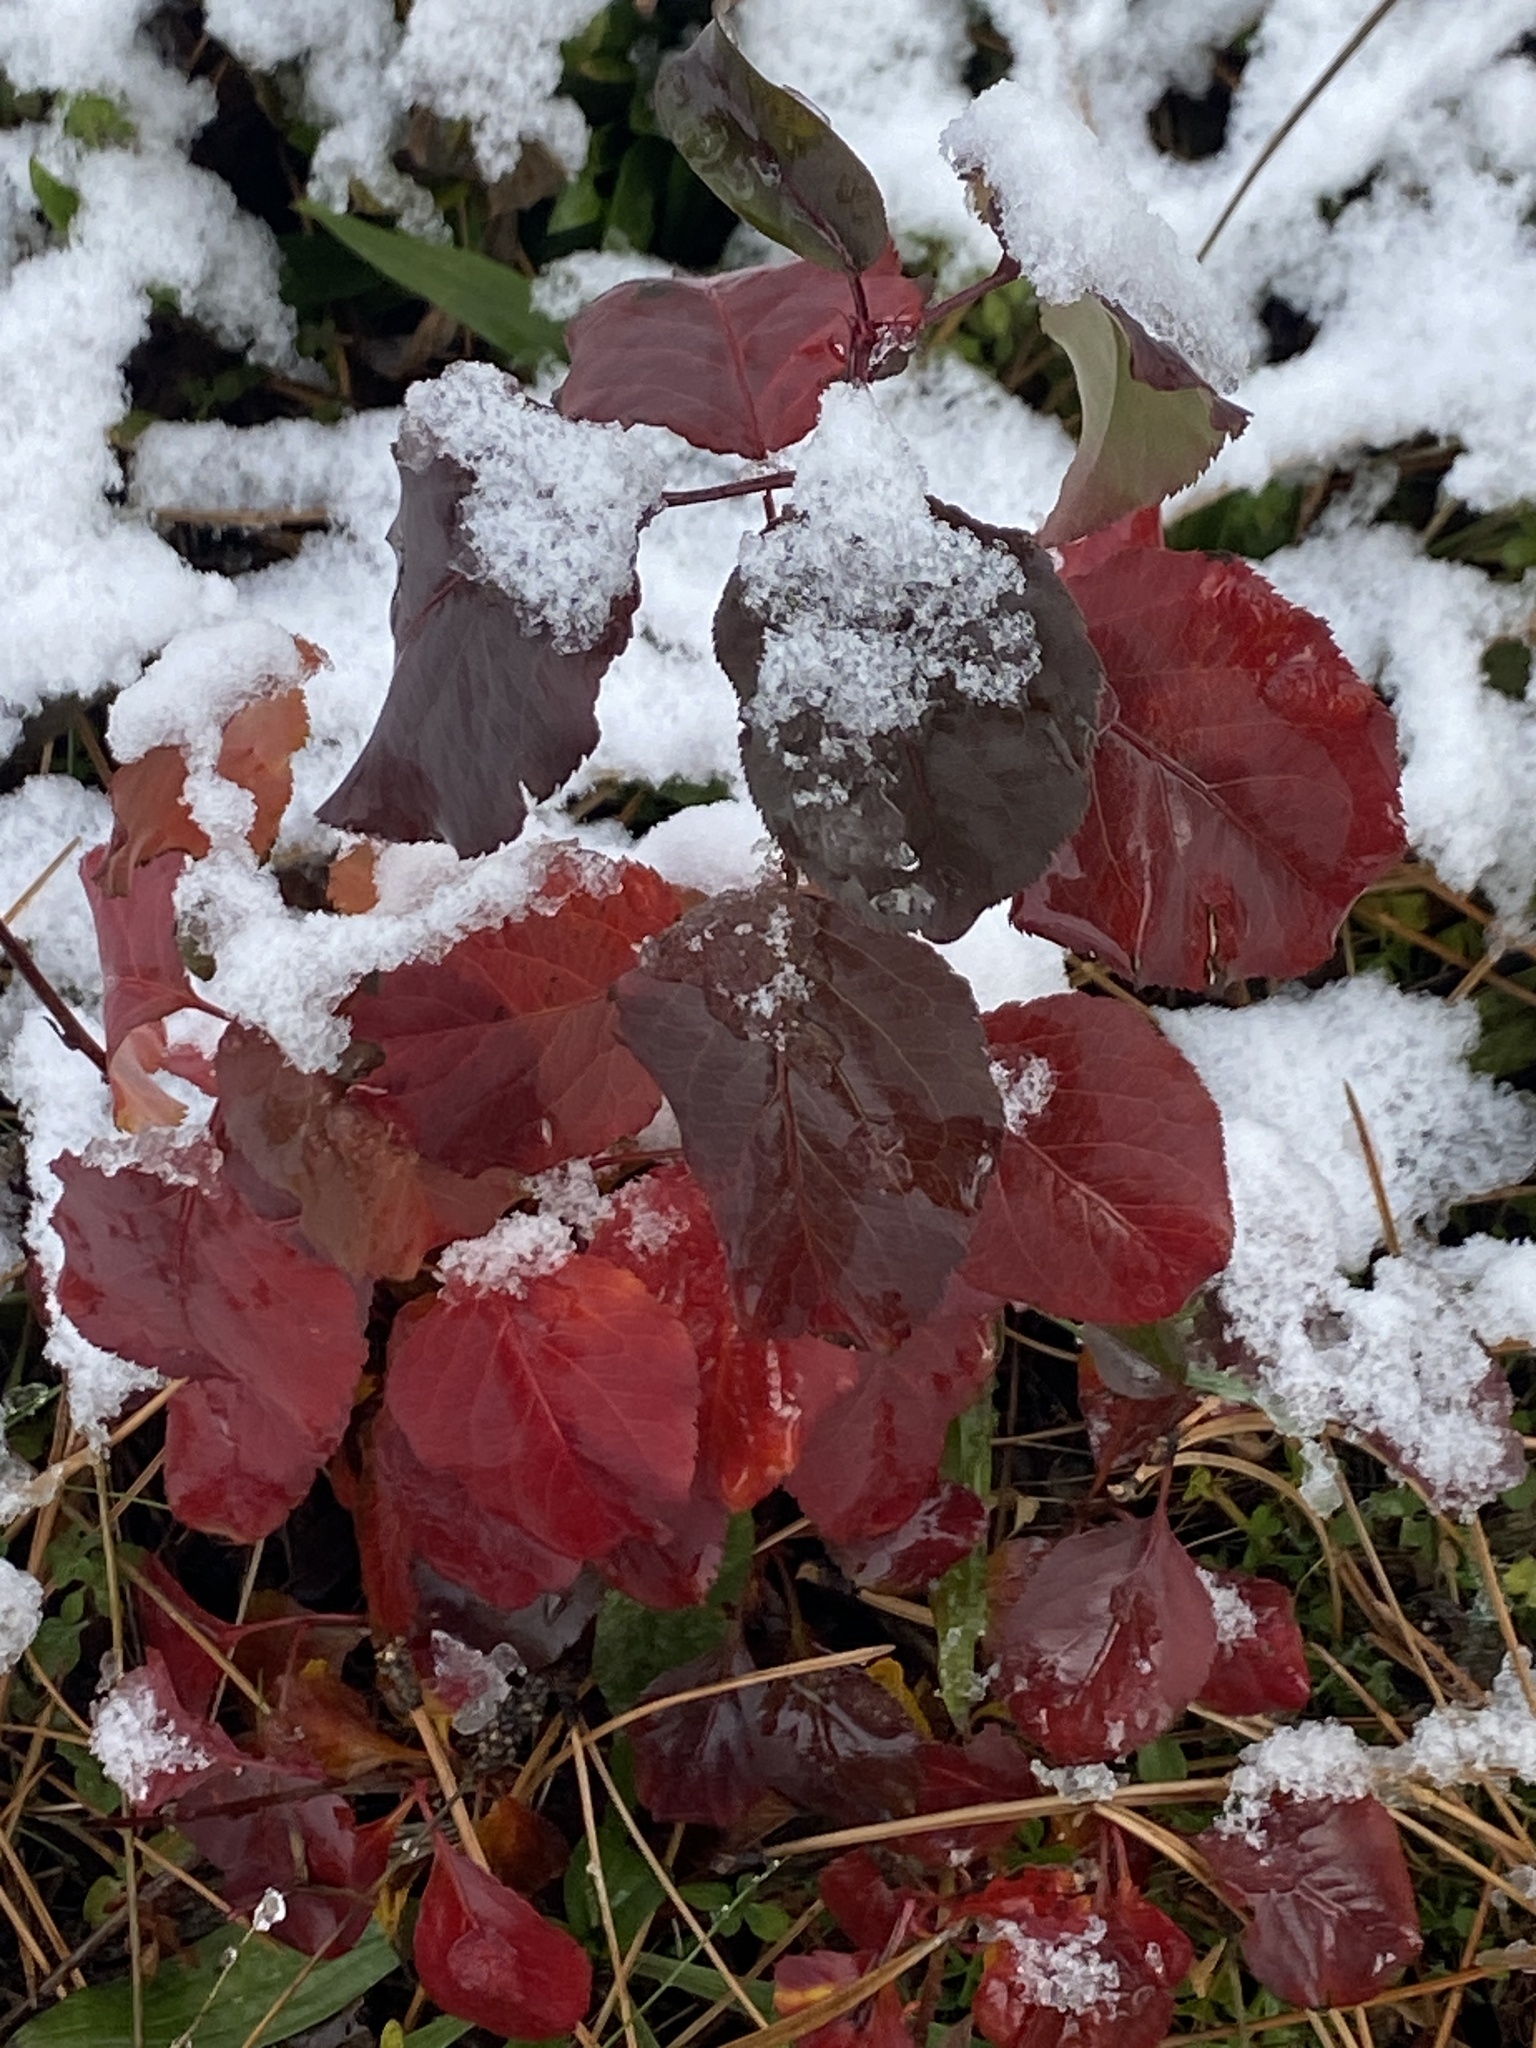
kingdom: Plantae
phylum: Tracheophyta
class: Magnoliopsida
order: Rosales
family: Rosaceae
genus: Pyrus
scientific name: Pyrus calleryana
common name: Callery pear
